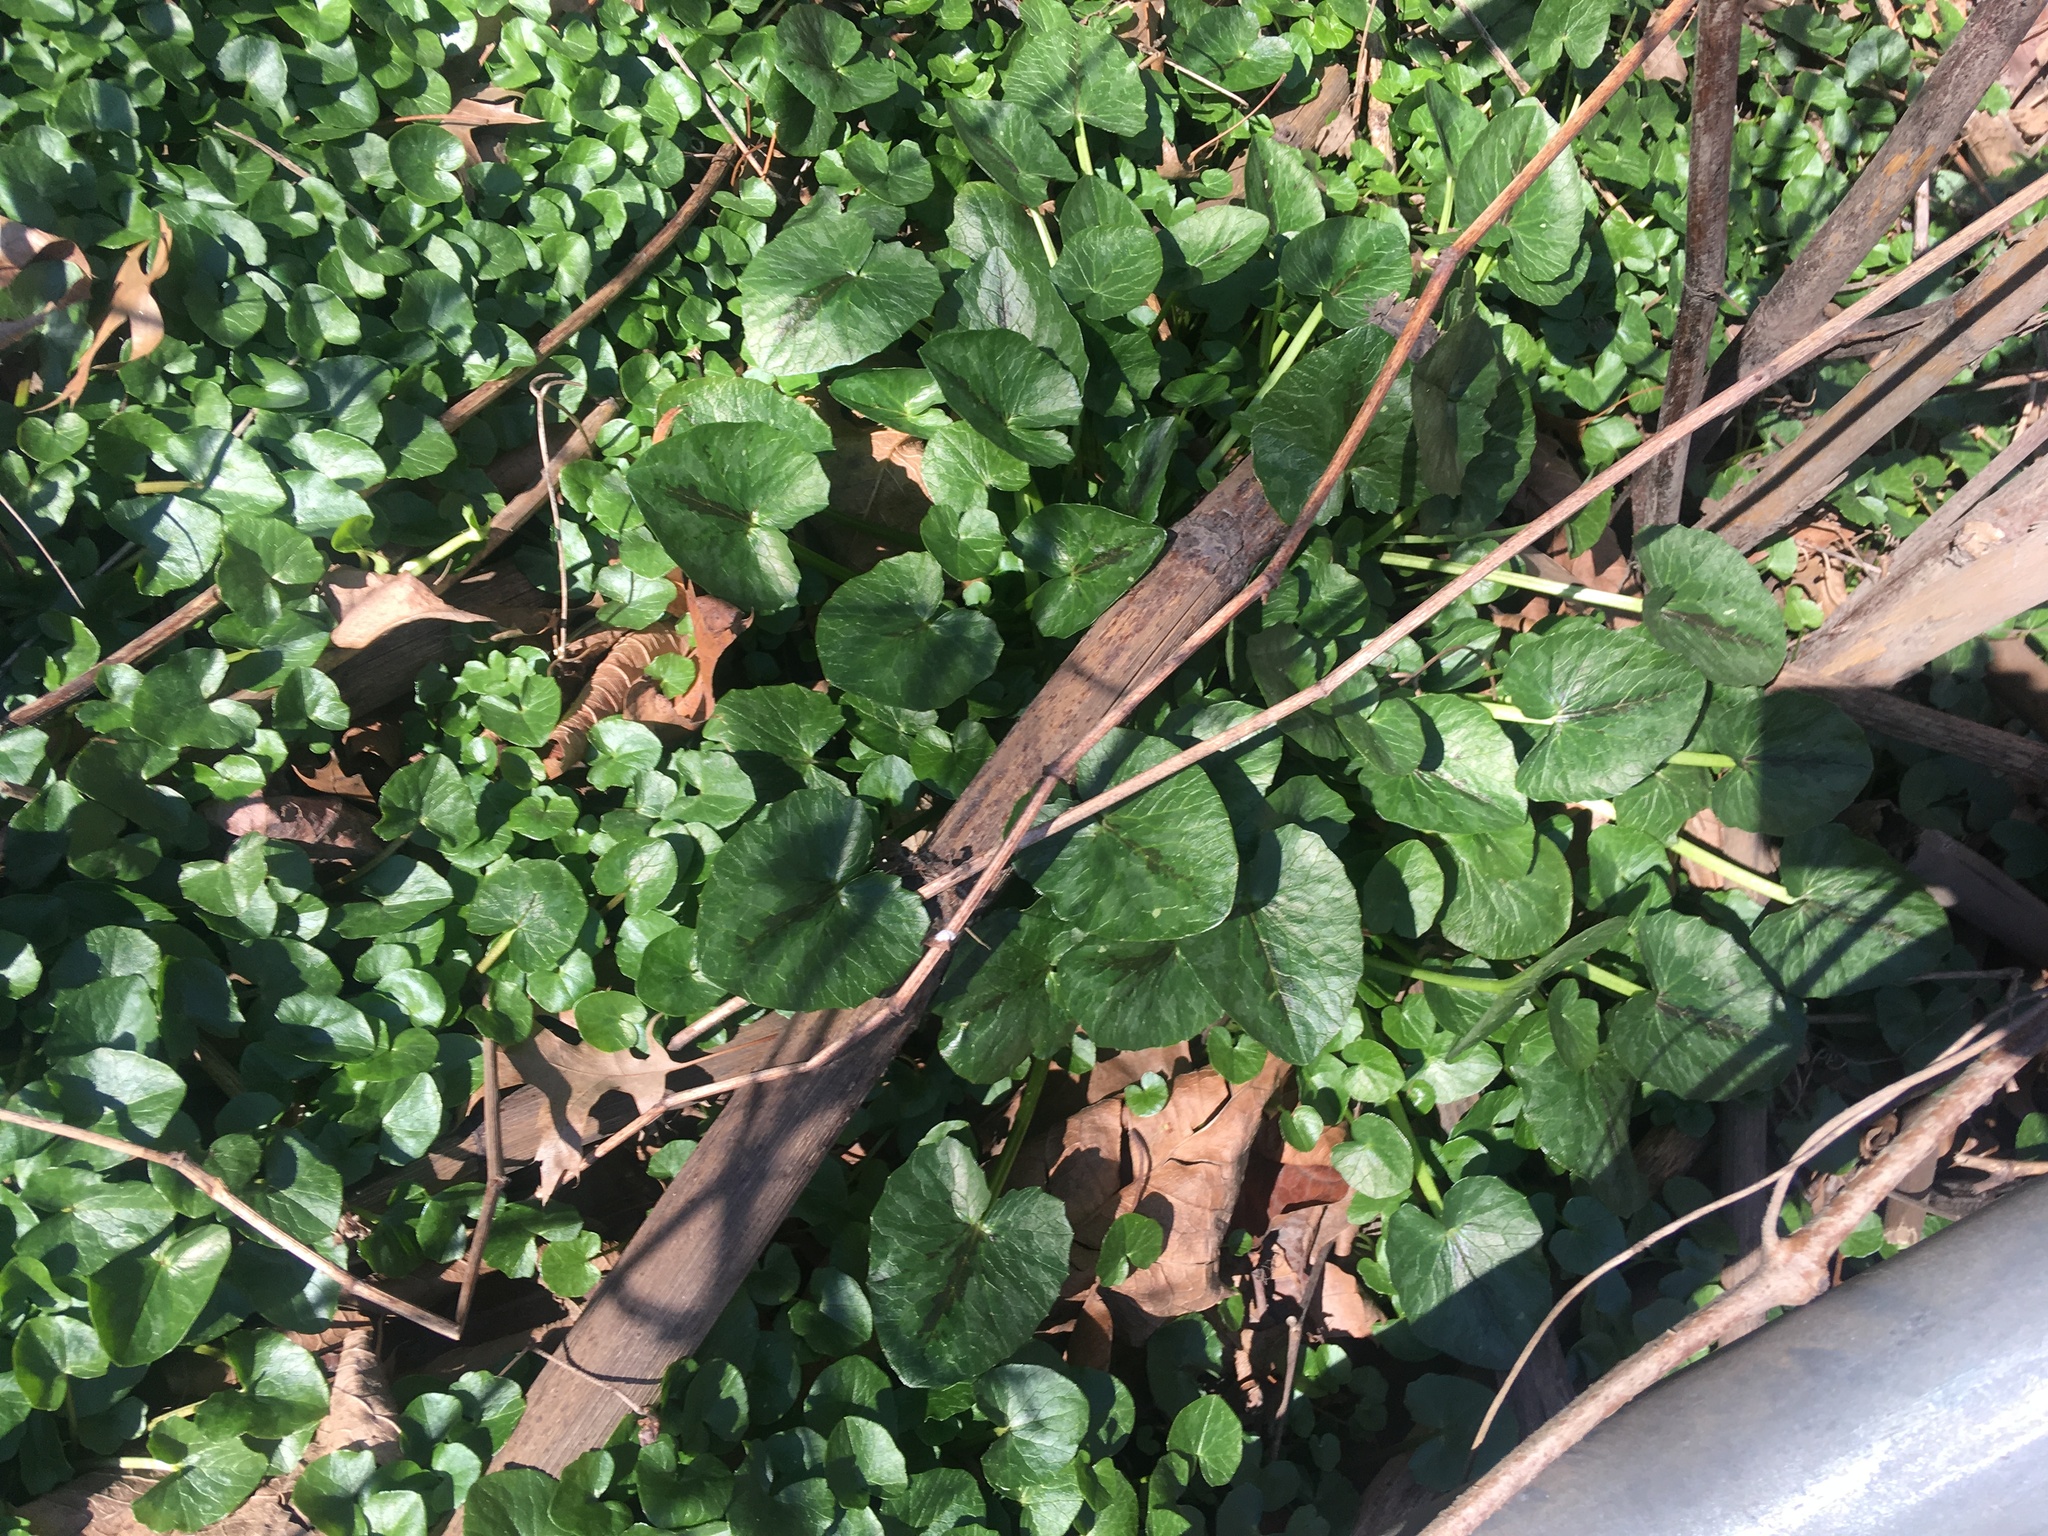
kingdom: Plantae
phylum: Tracheophyta
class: Magnoliopsida
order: Ranunculales
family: Ranunculaceae
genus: Ficaria
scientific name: Ficaria verna
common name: Lesser celandine
